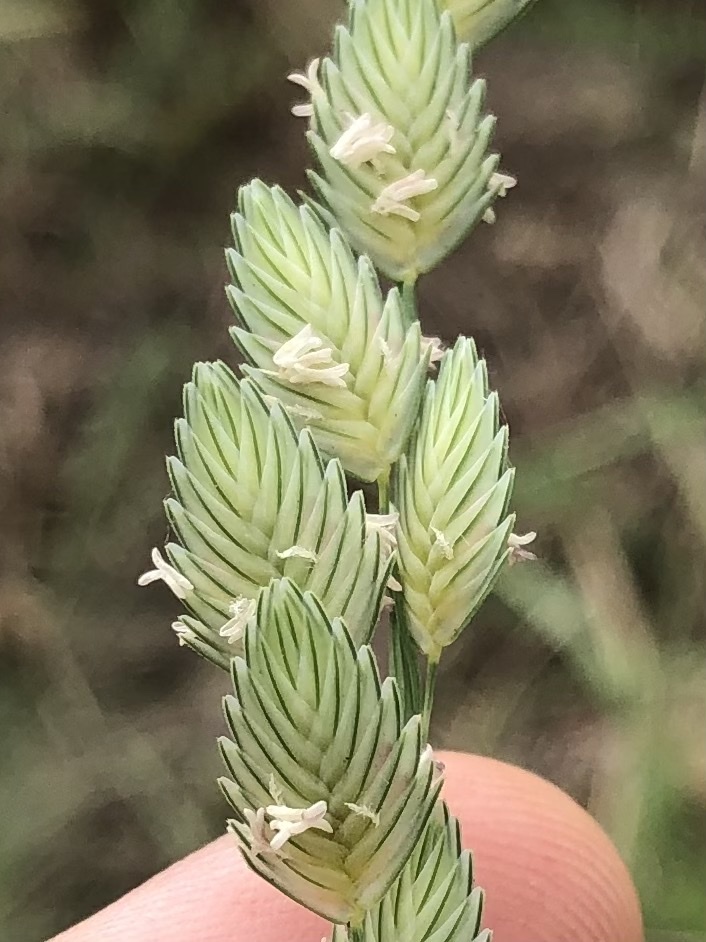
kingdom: Plantae
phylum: Tracheophyta
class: Liliopsida
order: Poales
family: Poaceae
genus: Eragrostis
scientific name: Eragrostis superba
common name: Wilman lovegrass
